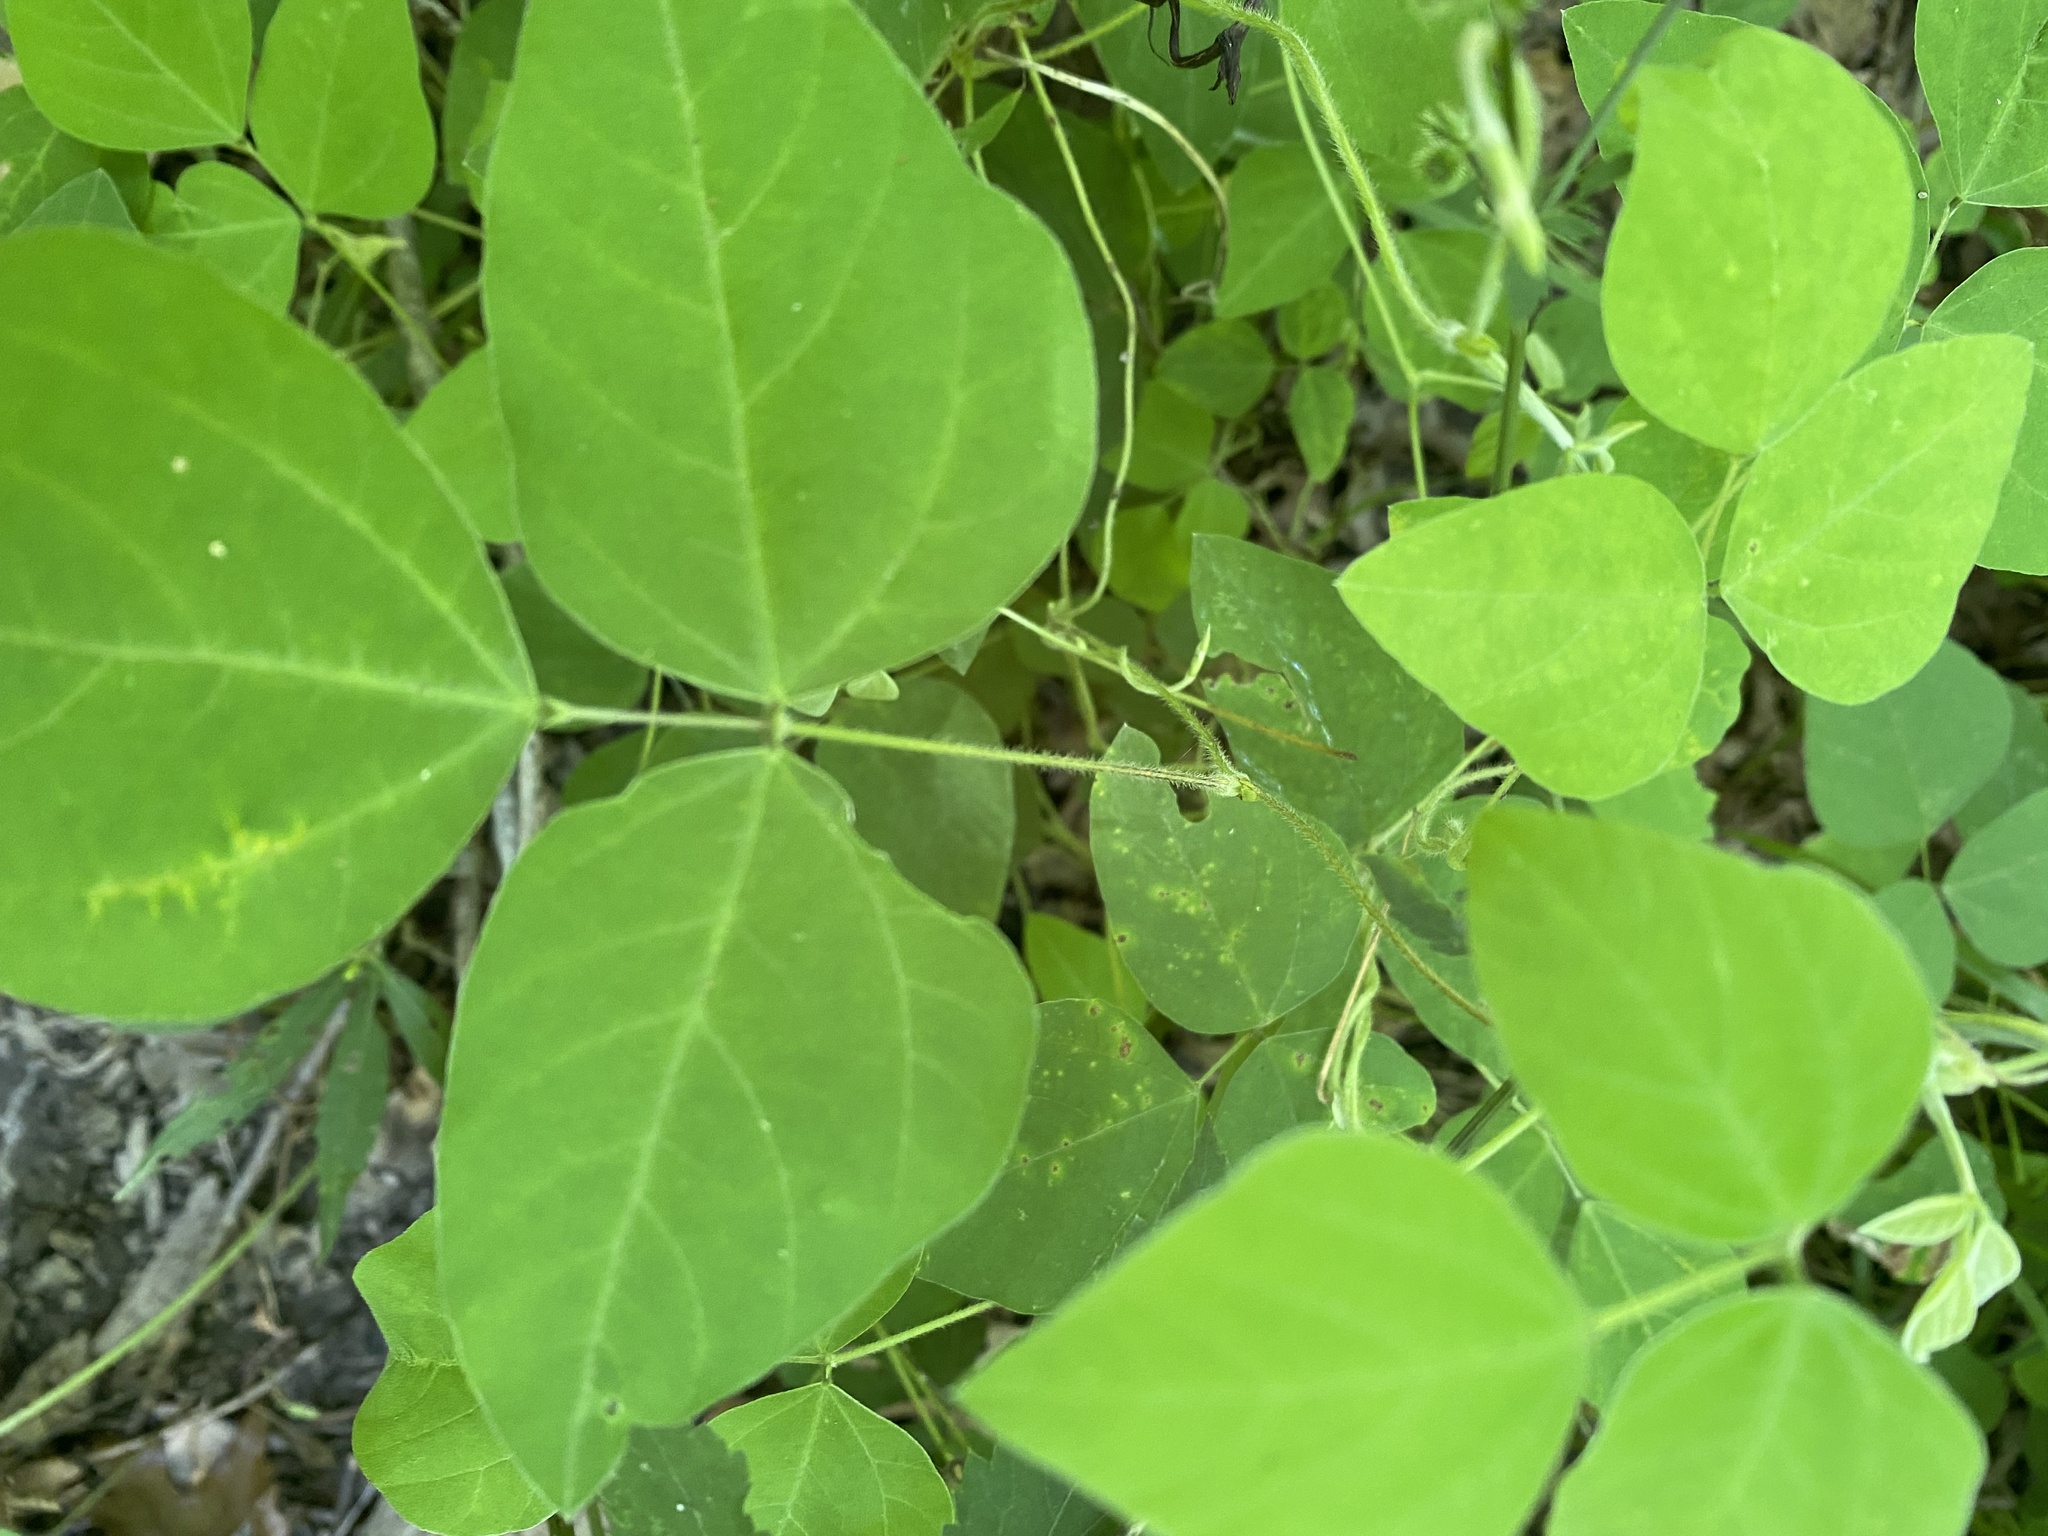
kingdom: Plantae
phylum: Tracheophyta
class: Magnoliopsida
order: Fabales
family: Fabaceae
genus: Amphicarpaea
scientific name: Amphicarpaea bracteata
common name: American hog peanut
